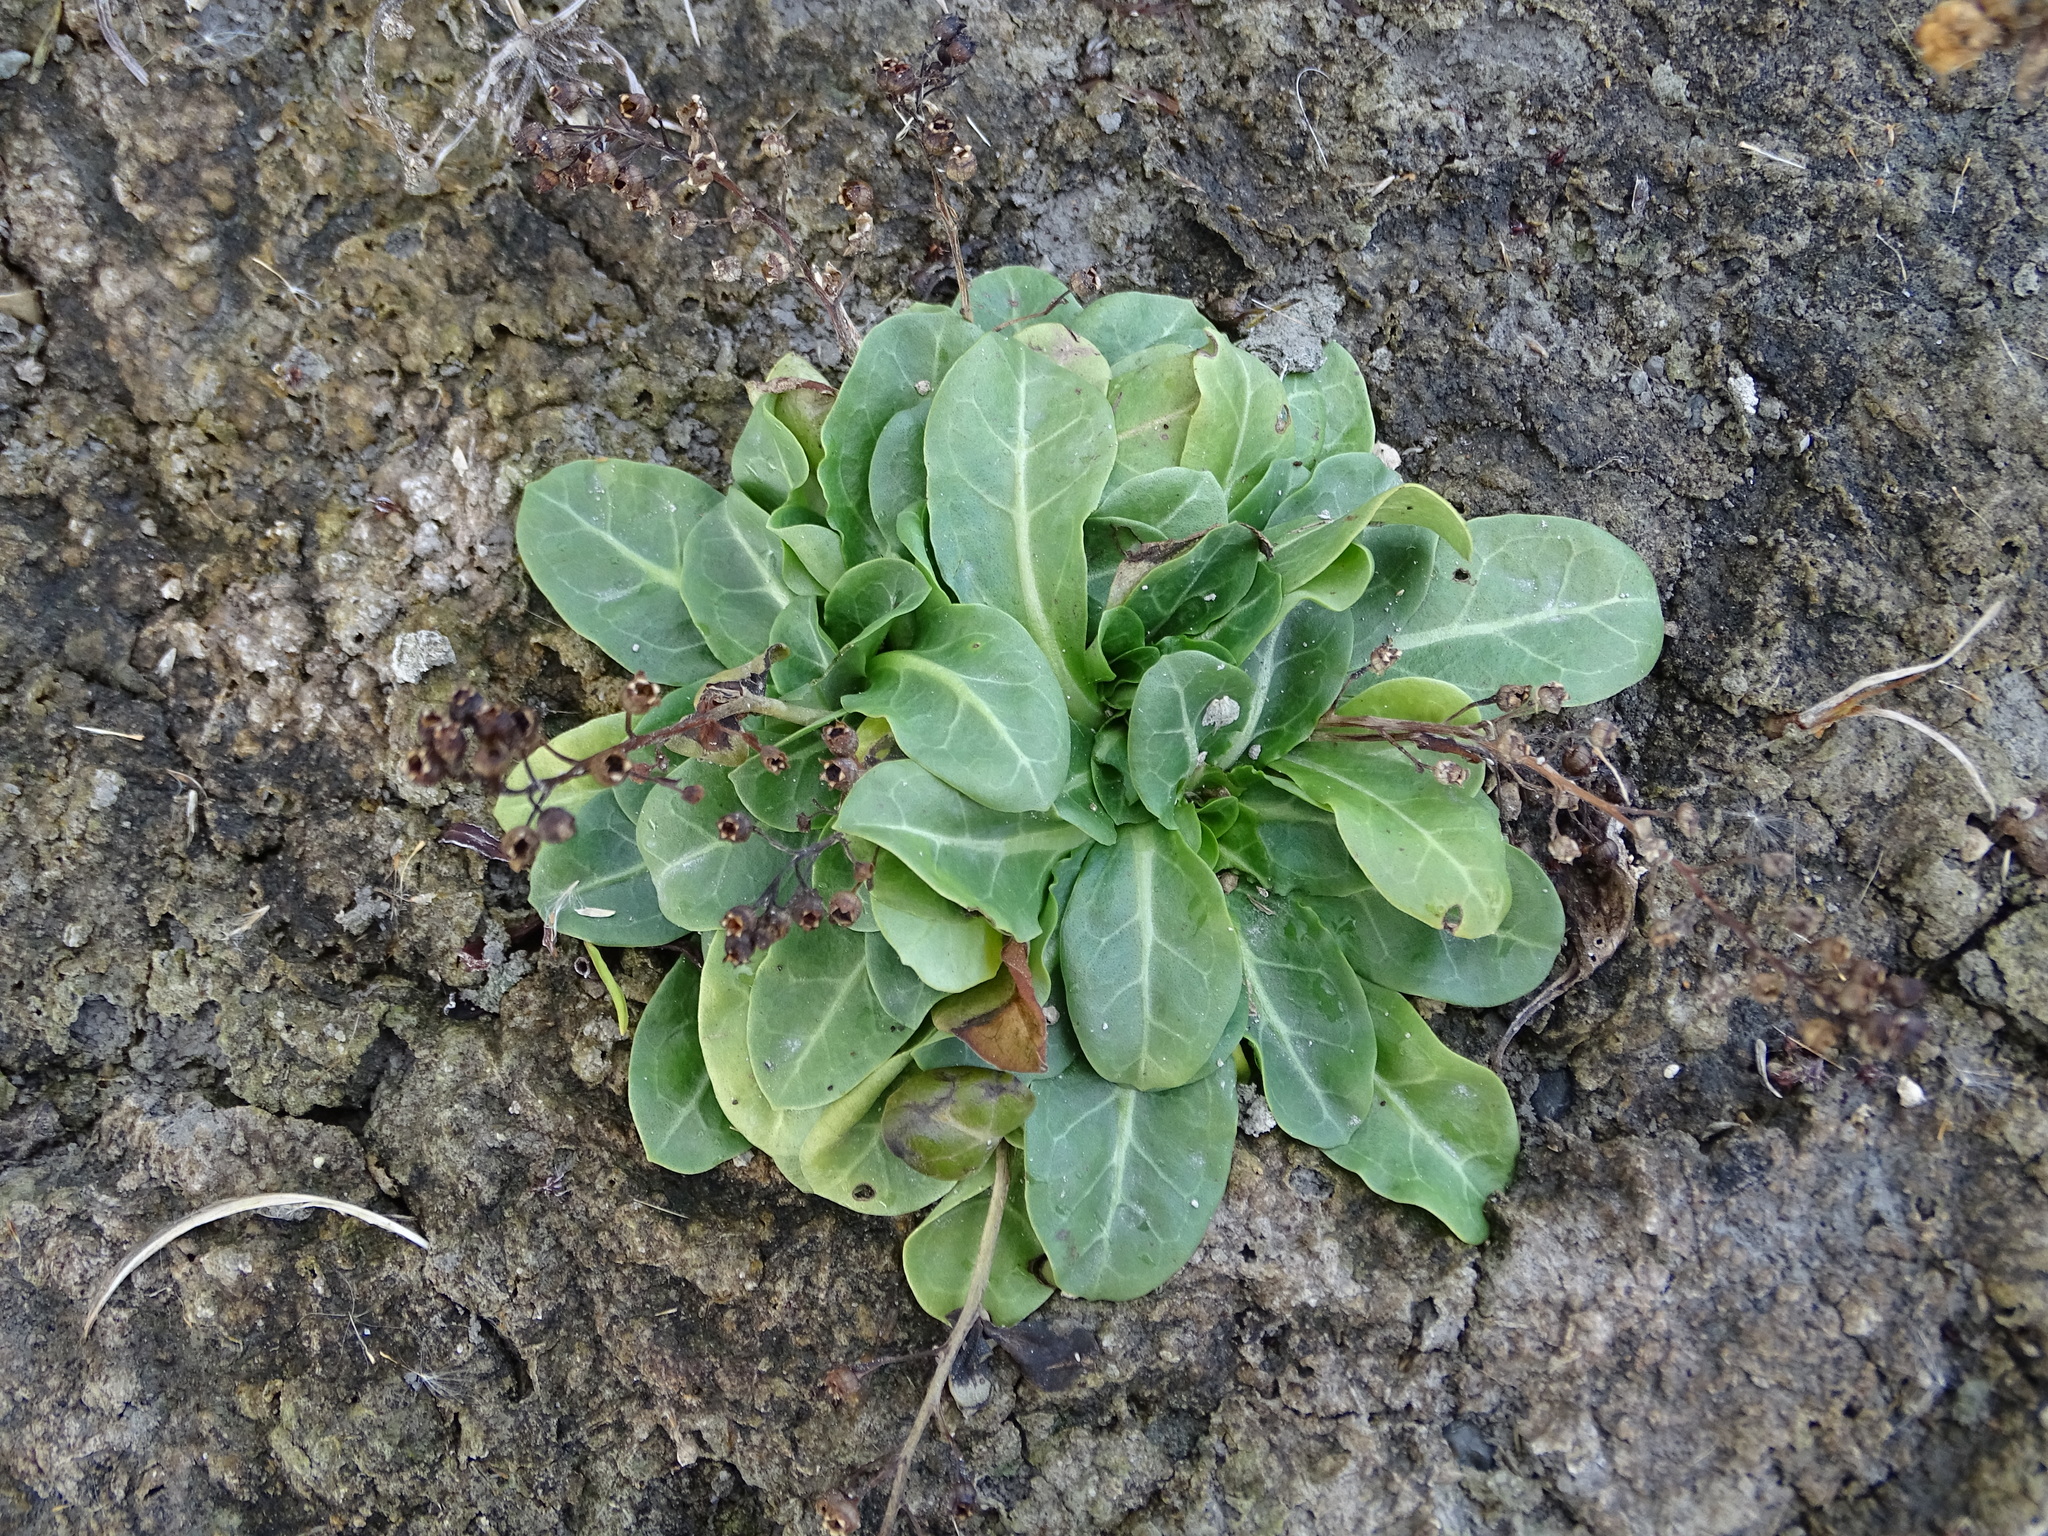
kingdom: Plantae
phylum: Tracheophyta
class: Magnoliopsida
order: Ericales
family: Primulaceae
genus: Samolus
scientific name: Samolus valerandi
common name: Brookweed
